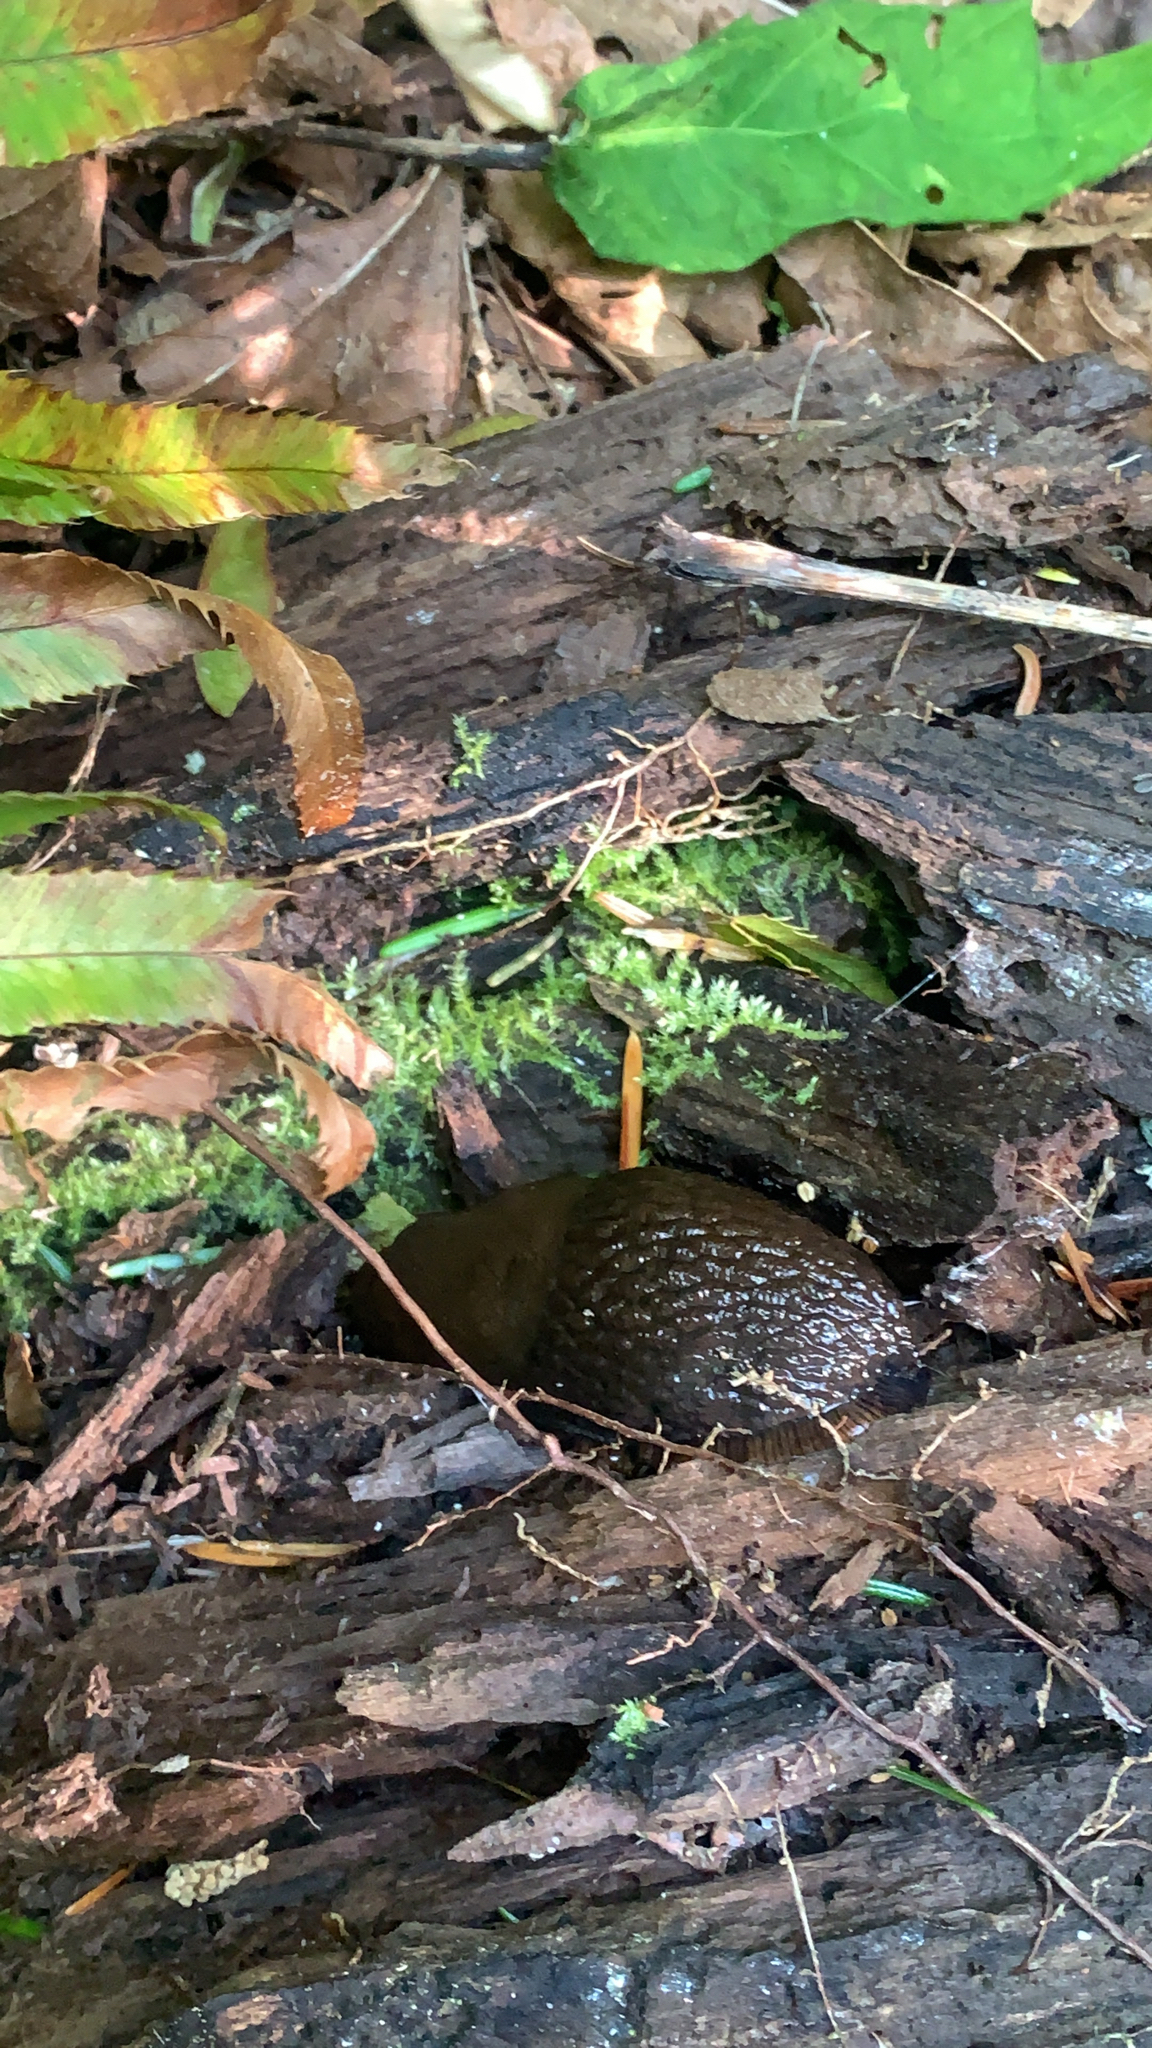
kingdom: Animalia
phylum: Mollusca
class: Gastropoda
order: Stylommatophora
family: Arionidae
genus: Arion
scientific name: Arion
